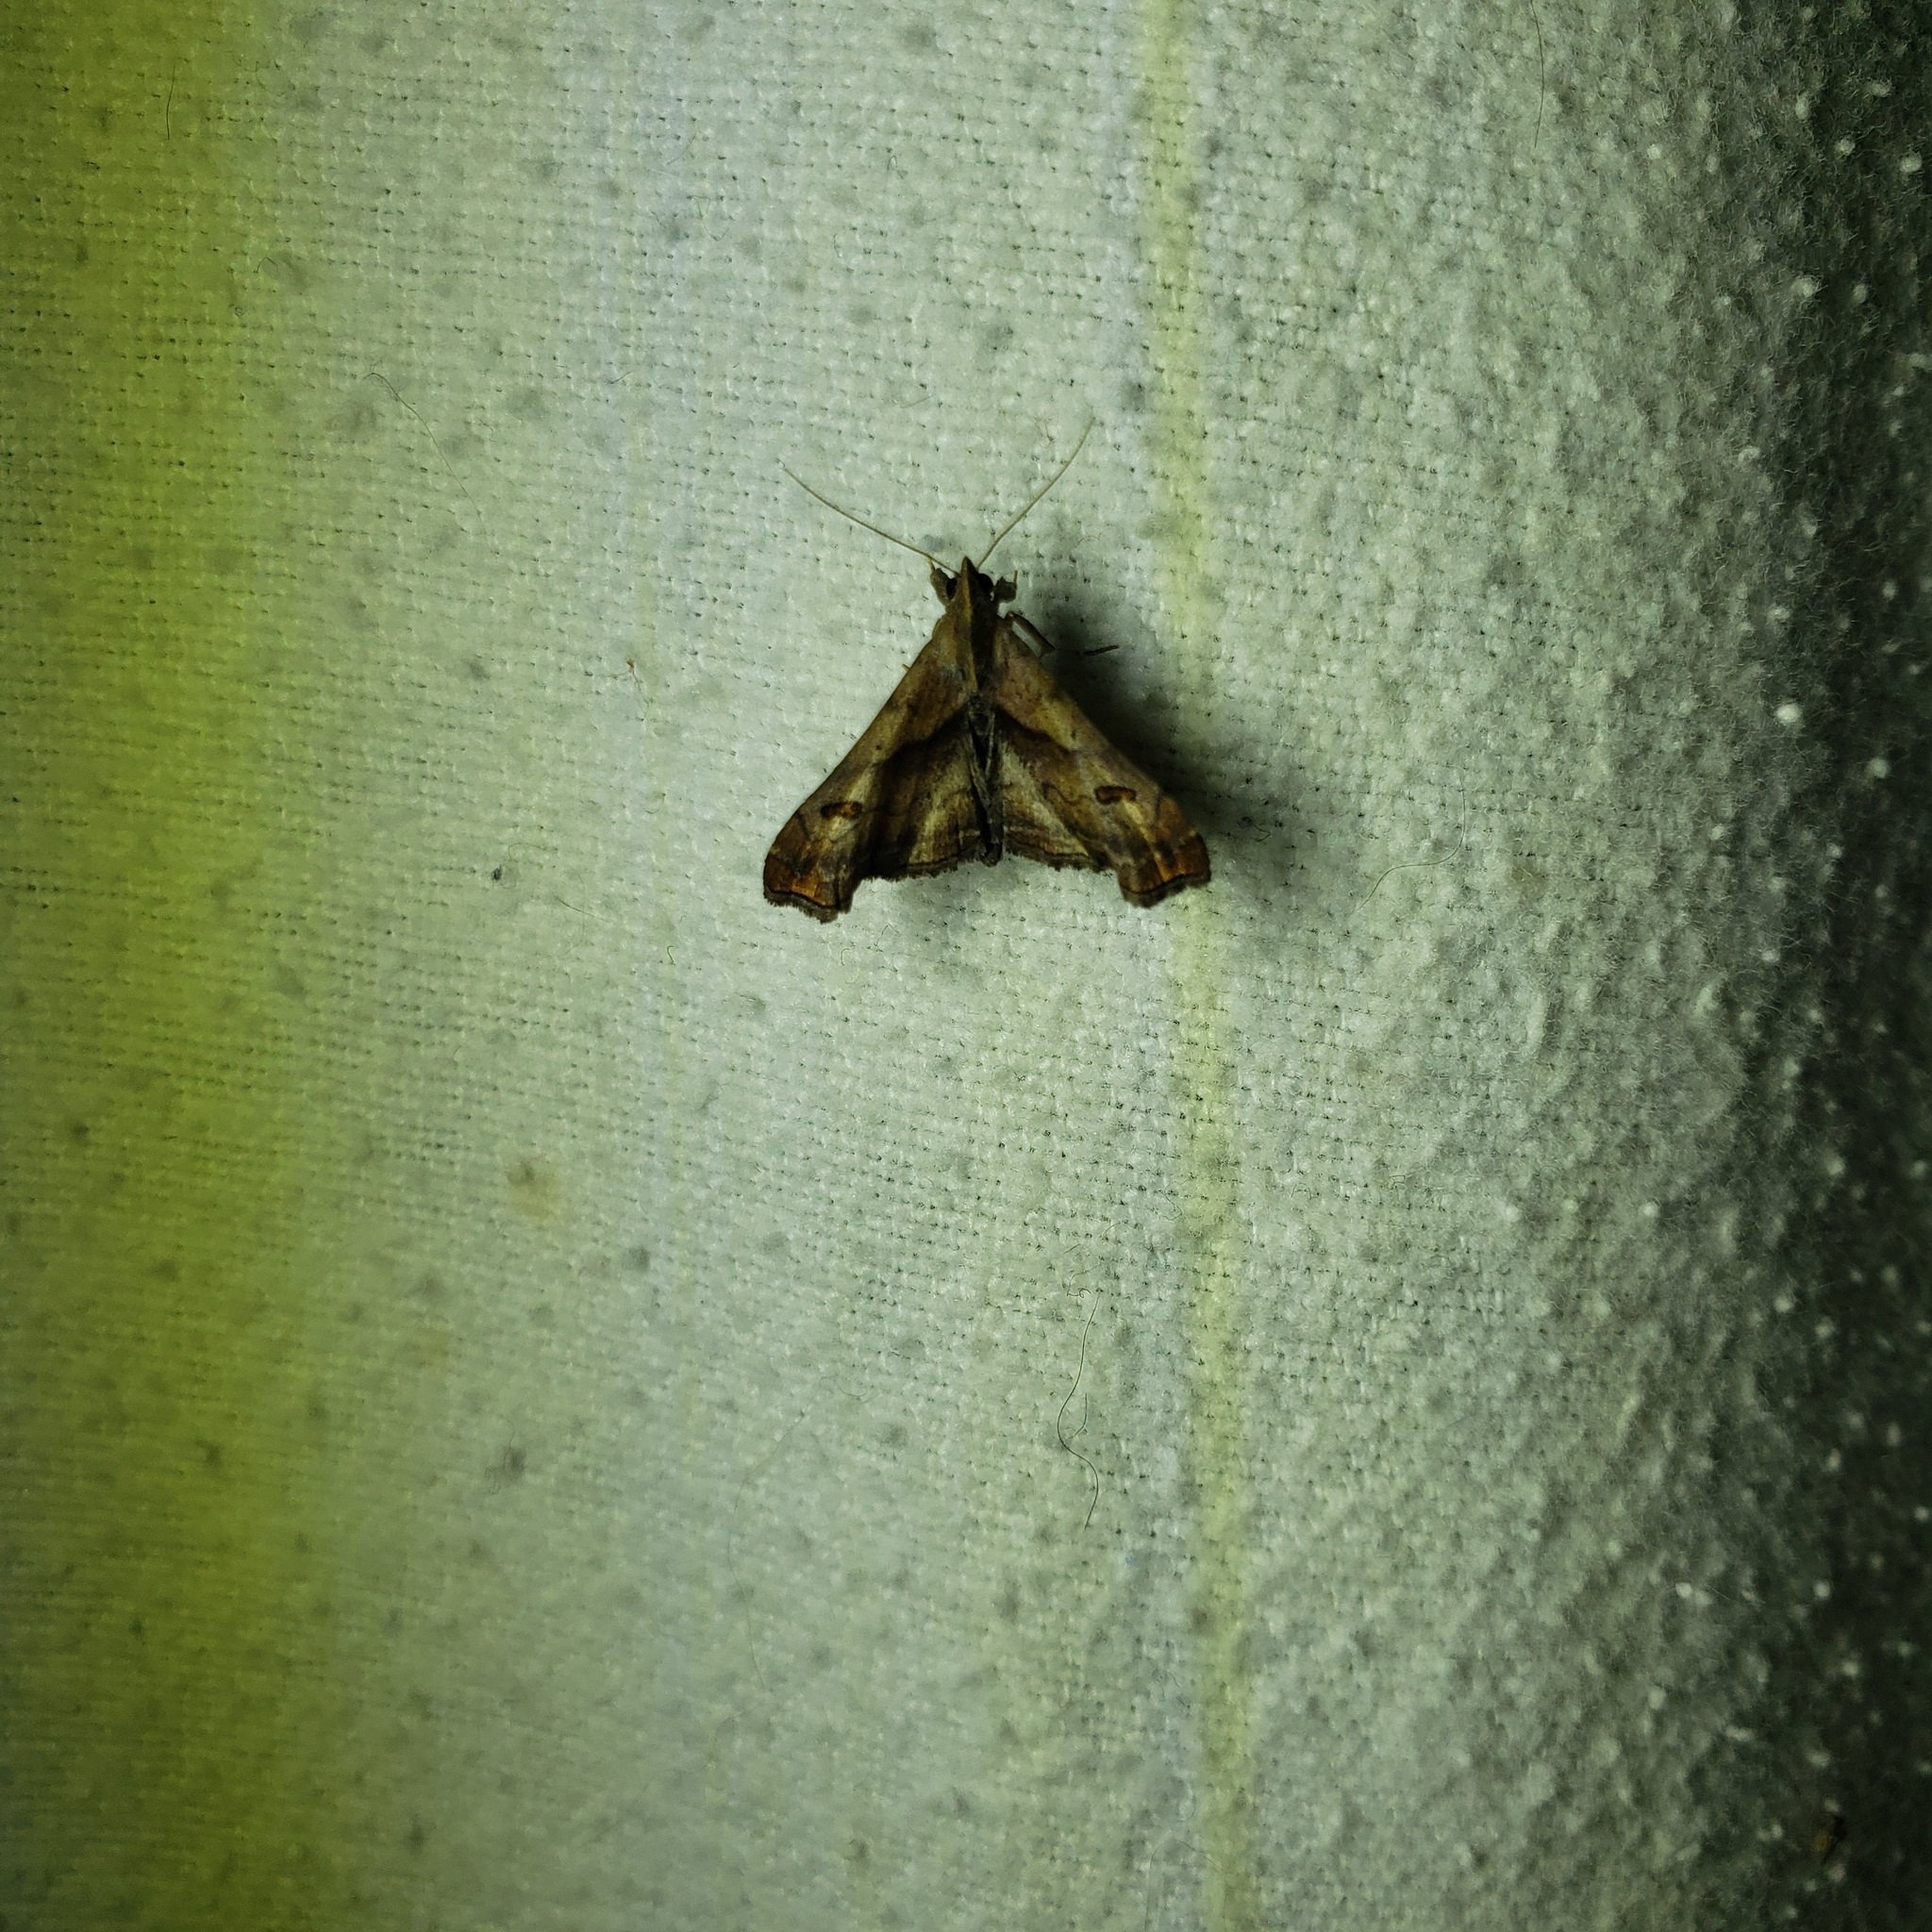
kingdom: Animalia
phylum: Arthropoda
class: Insecta
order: Lepidoptera
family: Erebidae
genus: Palthis
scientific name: Palthis angulalis
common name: Dark-spotted palthis moth
